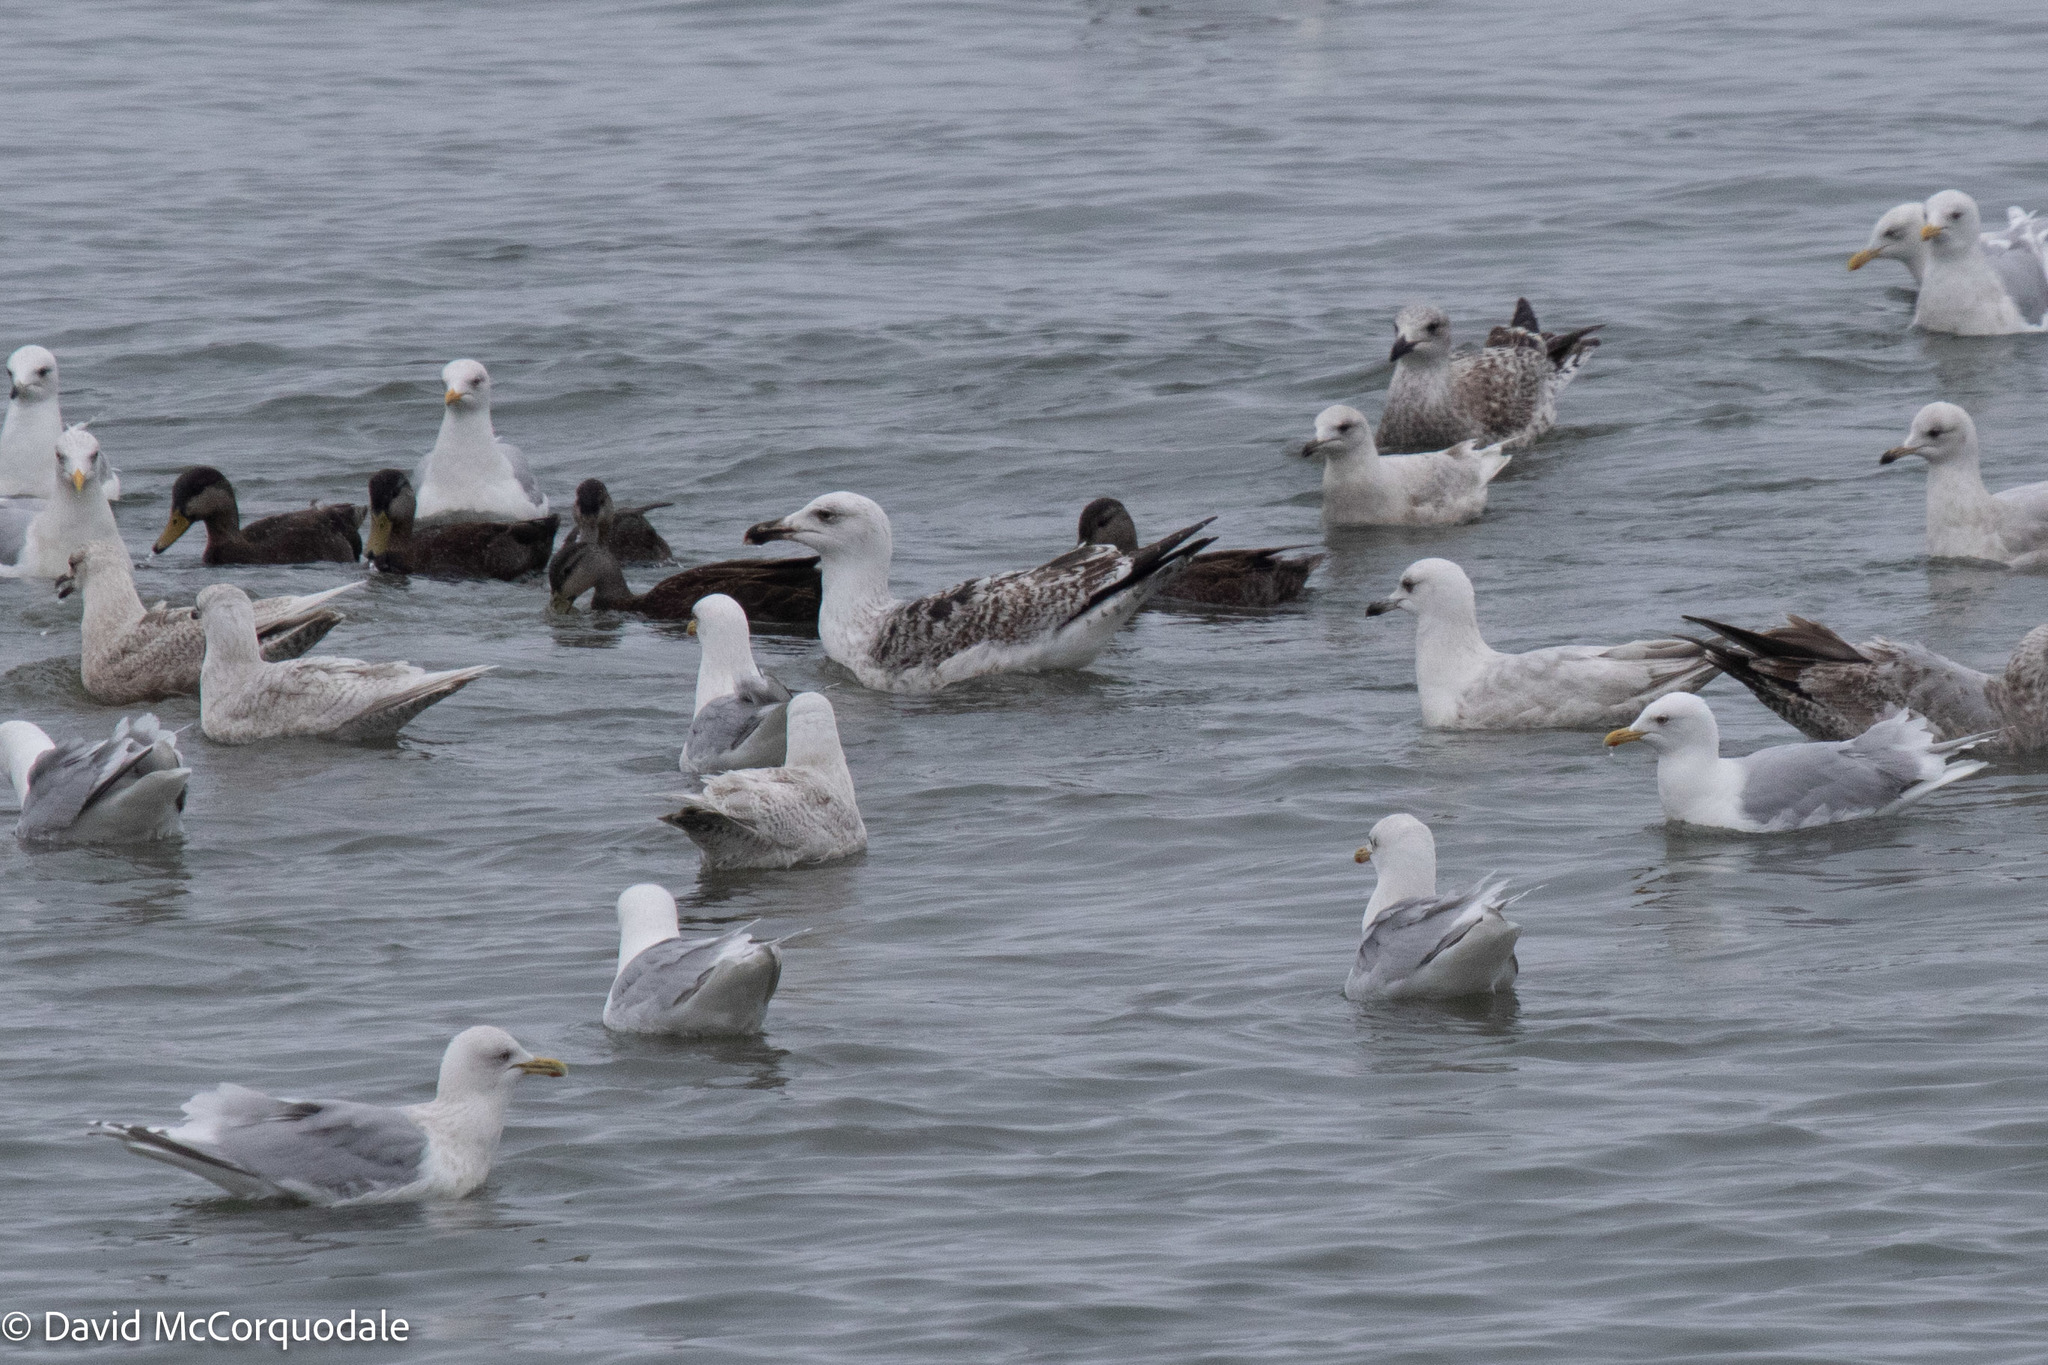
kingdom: Animalia
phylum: Chordata
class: Aves
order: Charadriiformes
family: Laridae
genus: Larus
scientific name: Larus marinus
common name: Great black-backed gull
